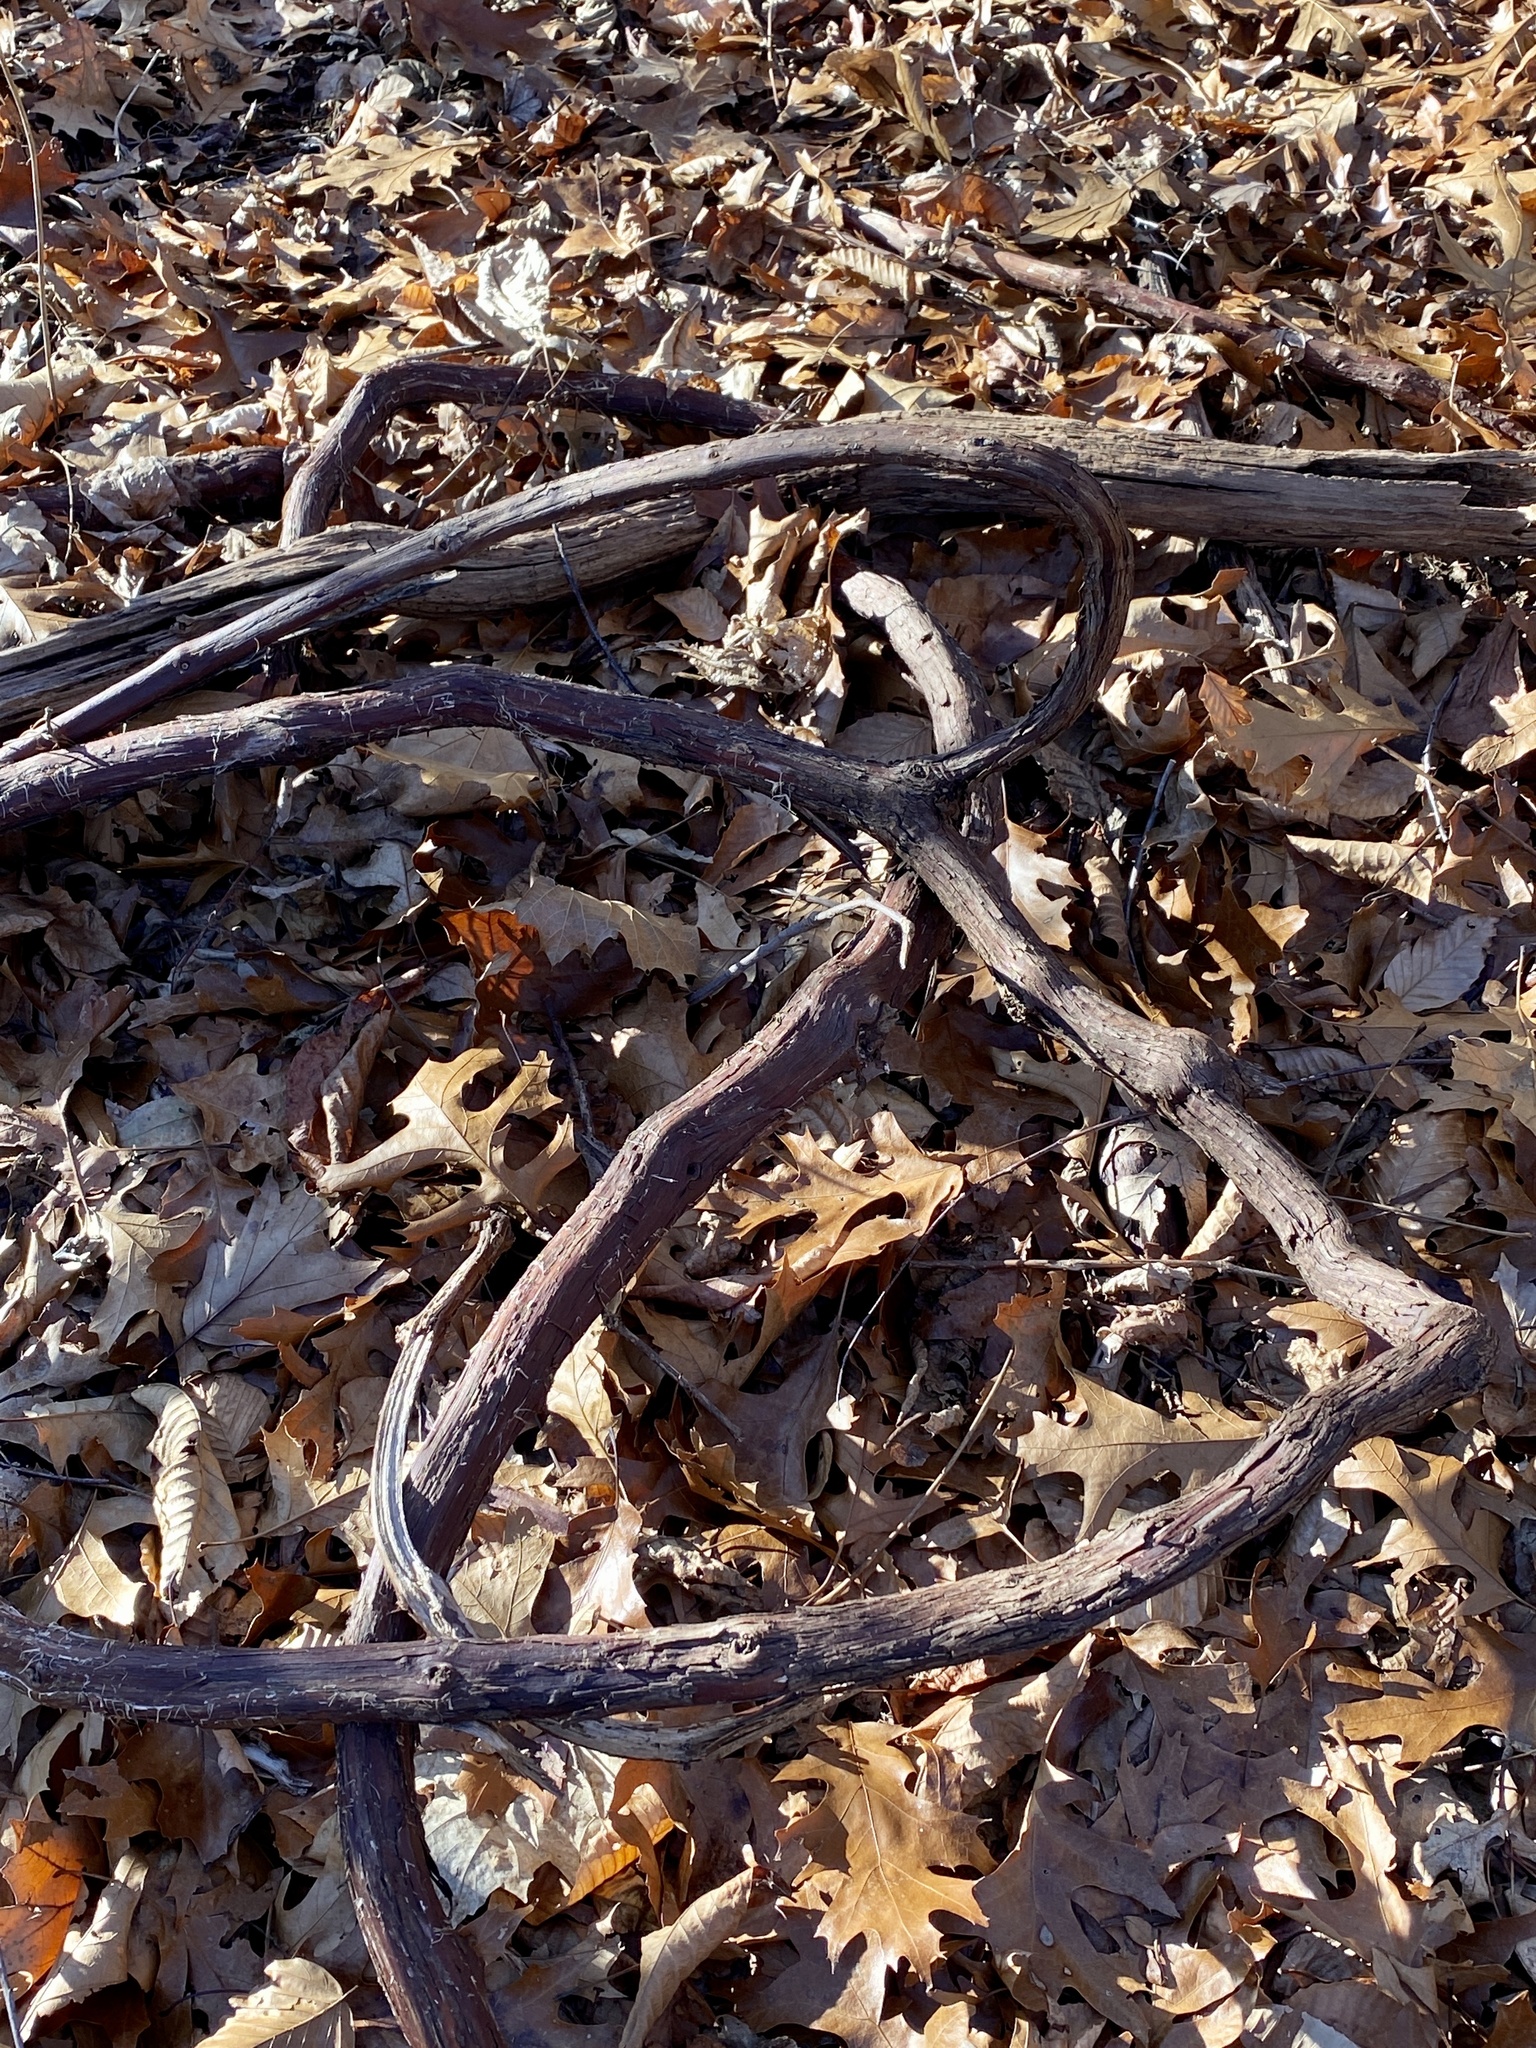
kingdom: Plantae
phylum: Tracheophyta
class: Magnoliopsida
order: Vitales
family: Vitaceae
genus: Vitis
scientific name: Vitis
